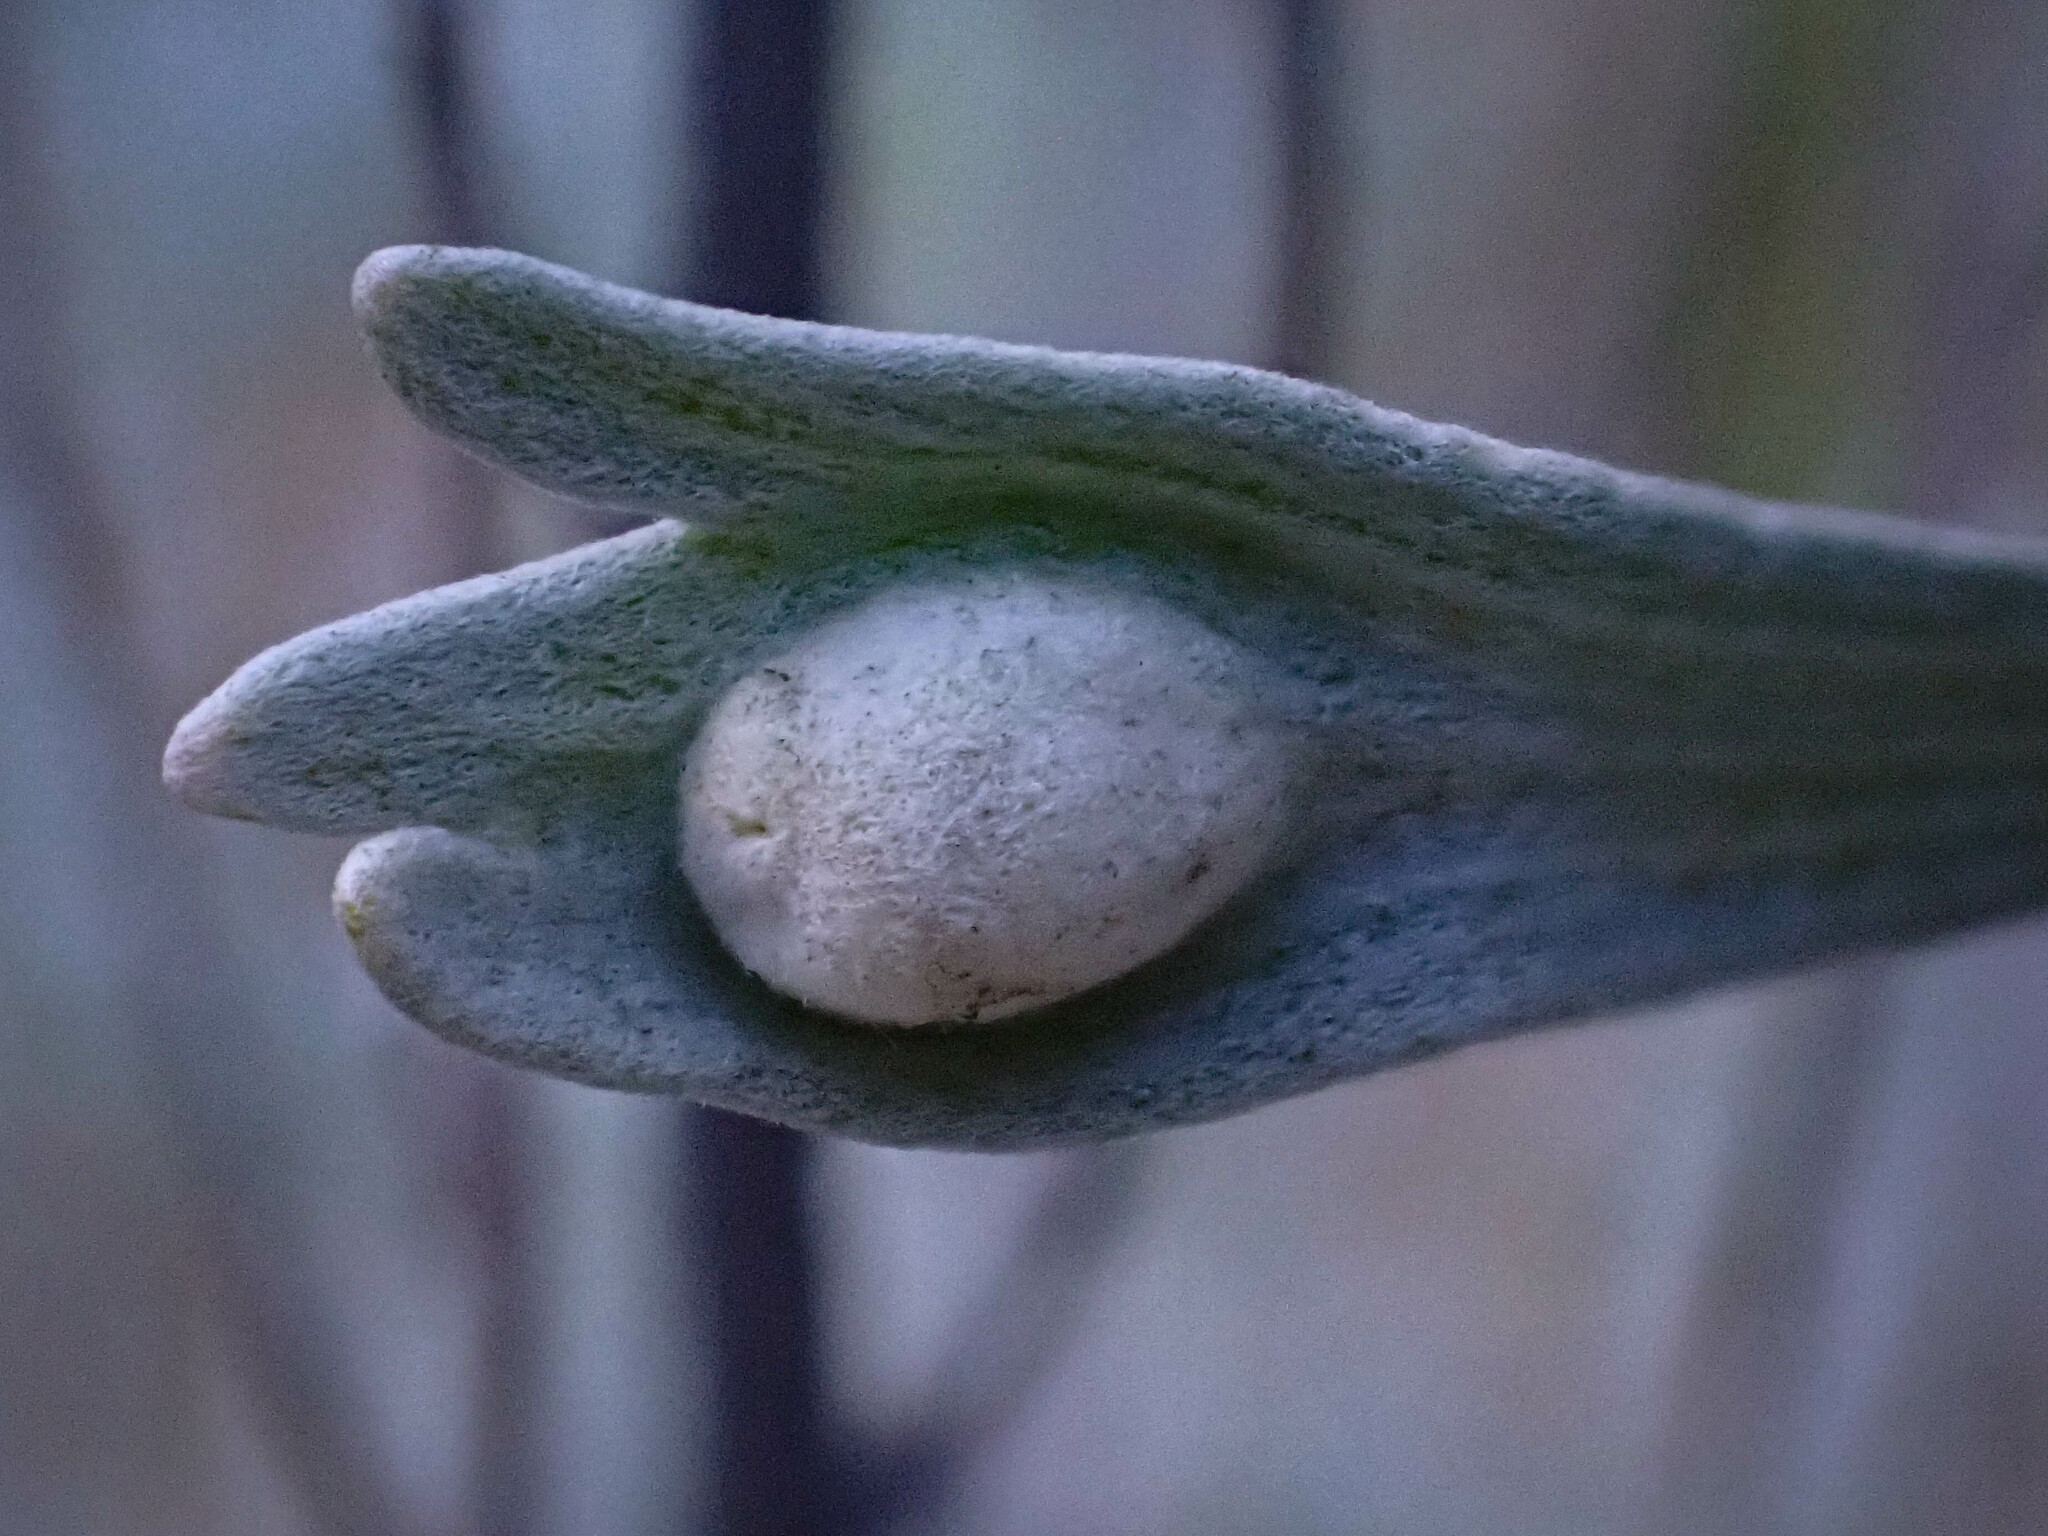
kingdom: Animalia
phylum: Arthropoda
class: Insecta
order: Diptera
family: Cecidomyiidae
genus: Rhopalomyia
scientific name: Rhopalomyia tumidibulla
